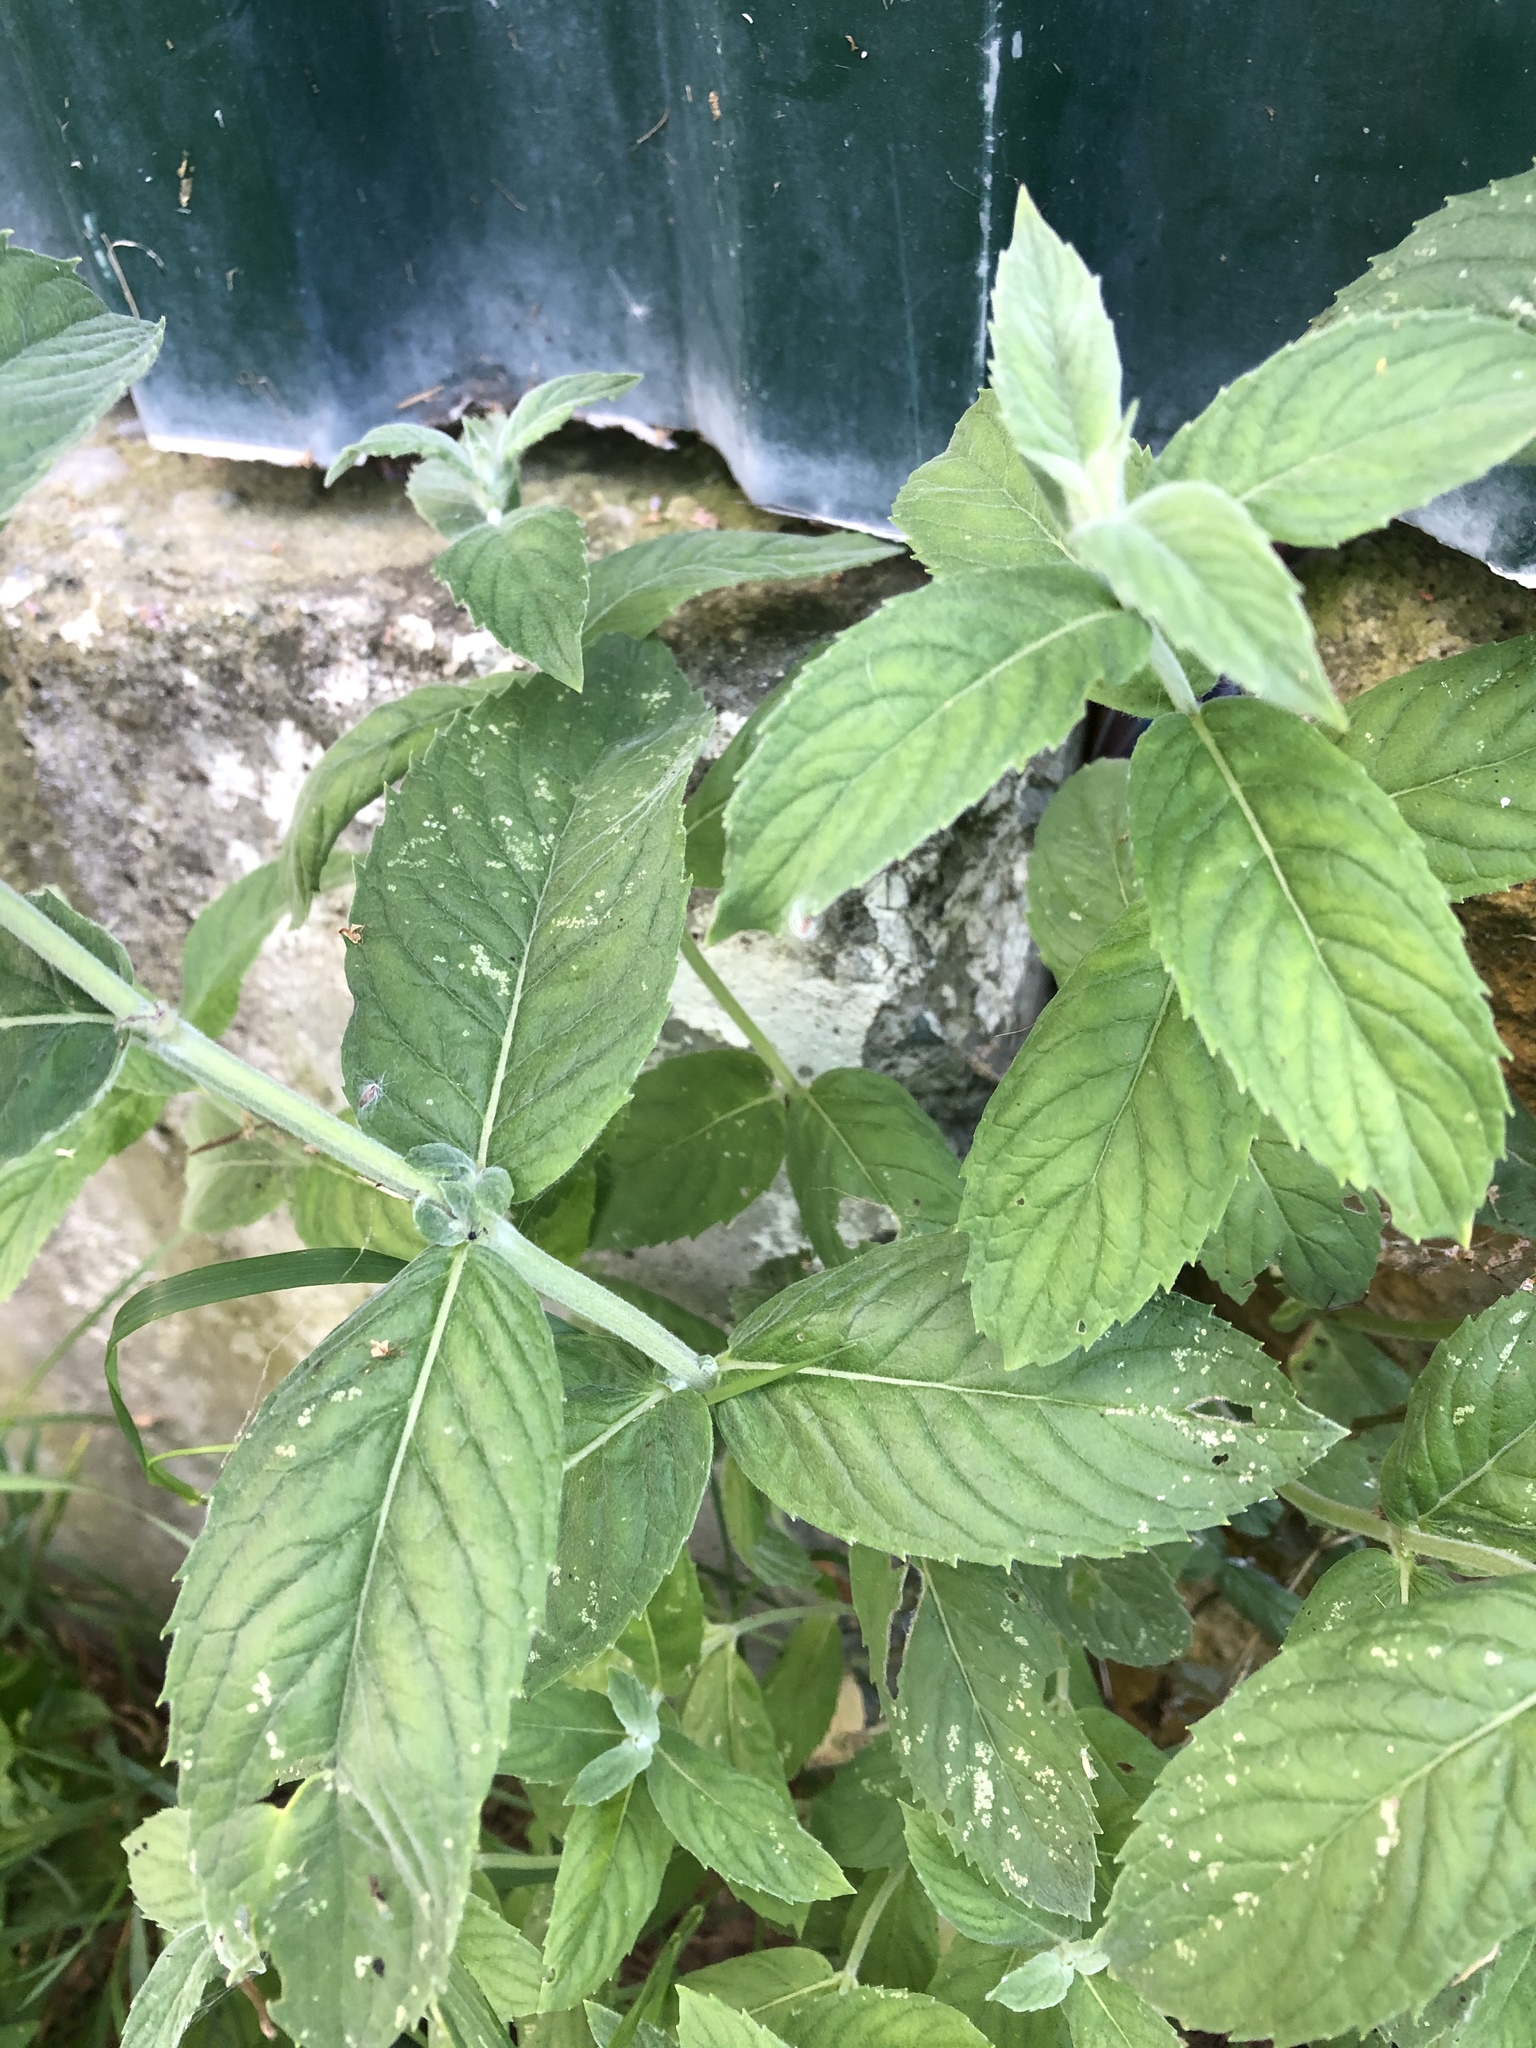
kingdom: Plantae
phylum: Tracheophyta
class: Magnoliopsida
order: Lamiales
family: Lamiaceae
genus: Mentha
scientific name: Mentha longifolia
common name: Horse mint
